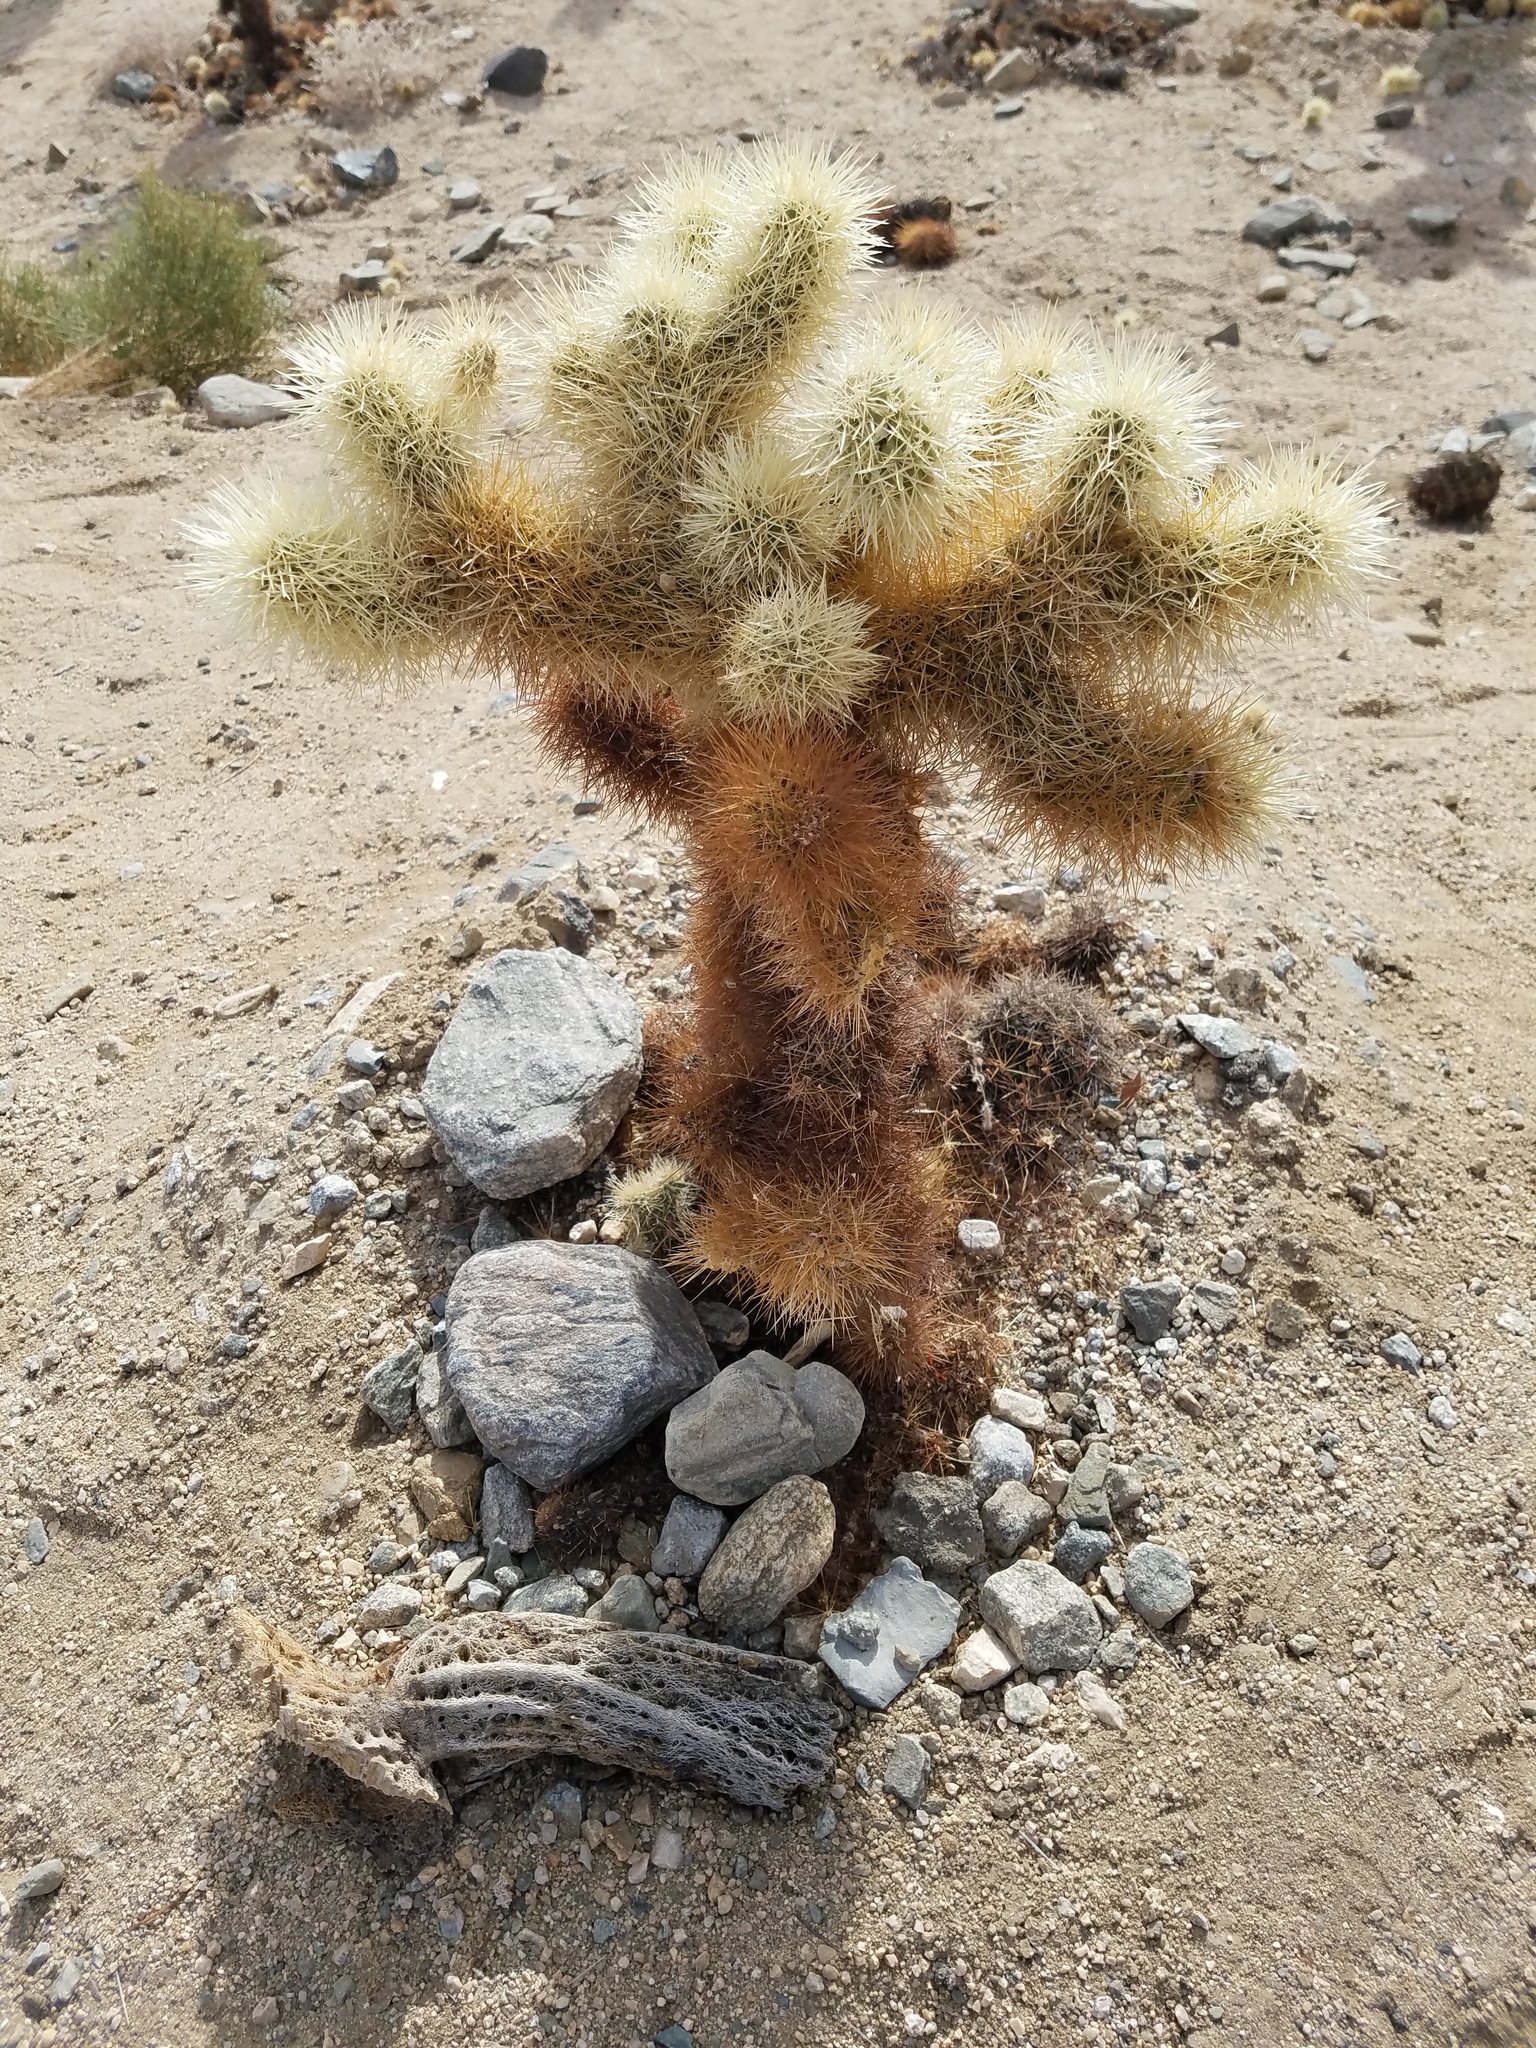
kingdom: Plantae
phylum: Tracheophyta
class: Magnoliopsida
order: Caryophyllales
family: Cactaceae
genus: Cylindropuntia
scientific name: Cylindropuntia fosbergii
